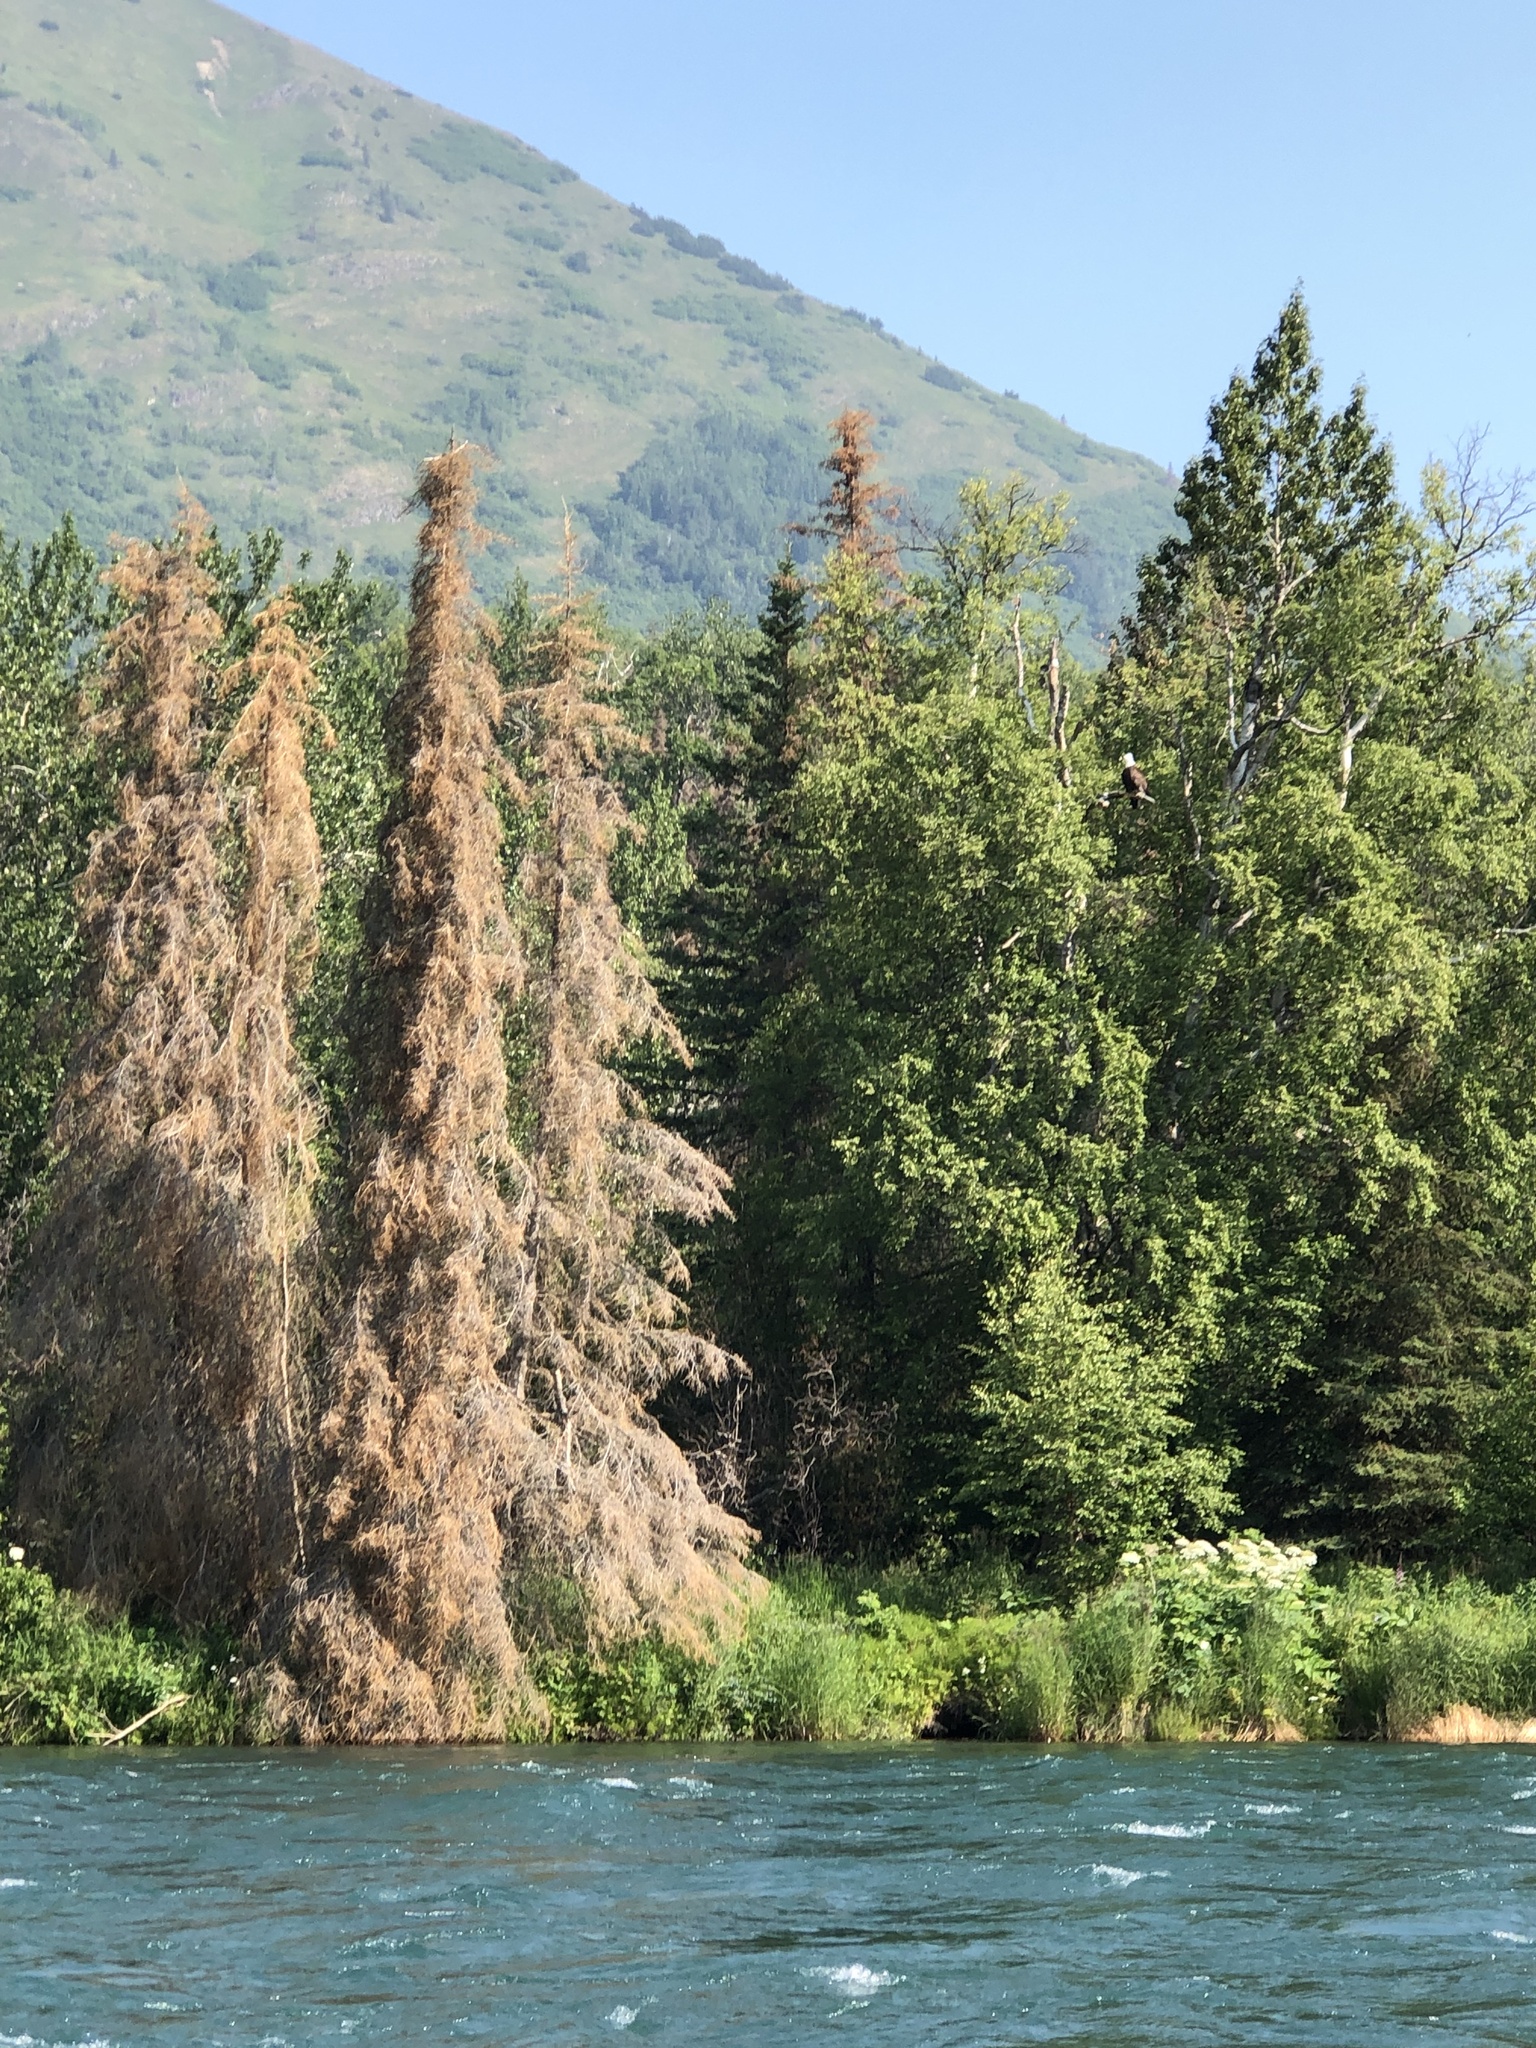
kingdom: Animalia
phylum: Chordata
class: Aves
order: Accipitriformes
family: Accipitridae
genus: Haliaeetus
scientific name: Haliaeetus leucocephalus
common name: Bald eagle
